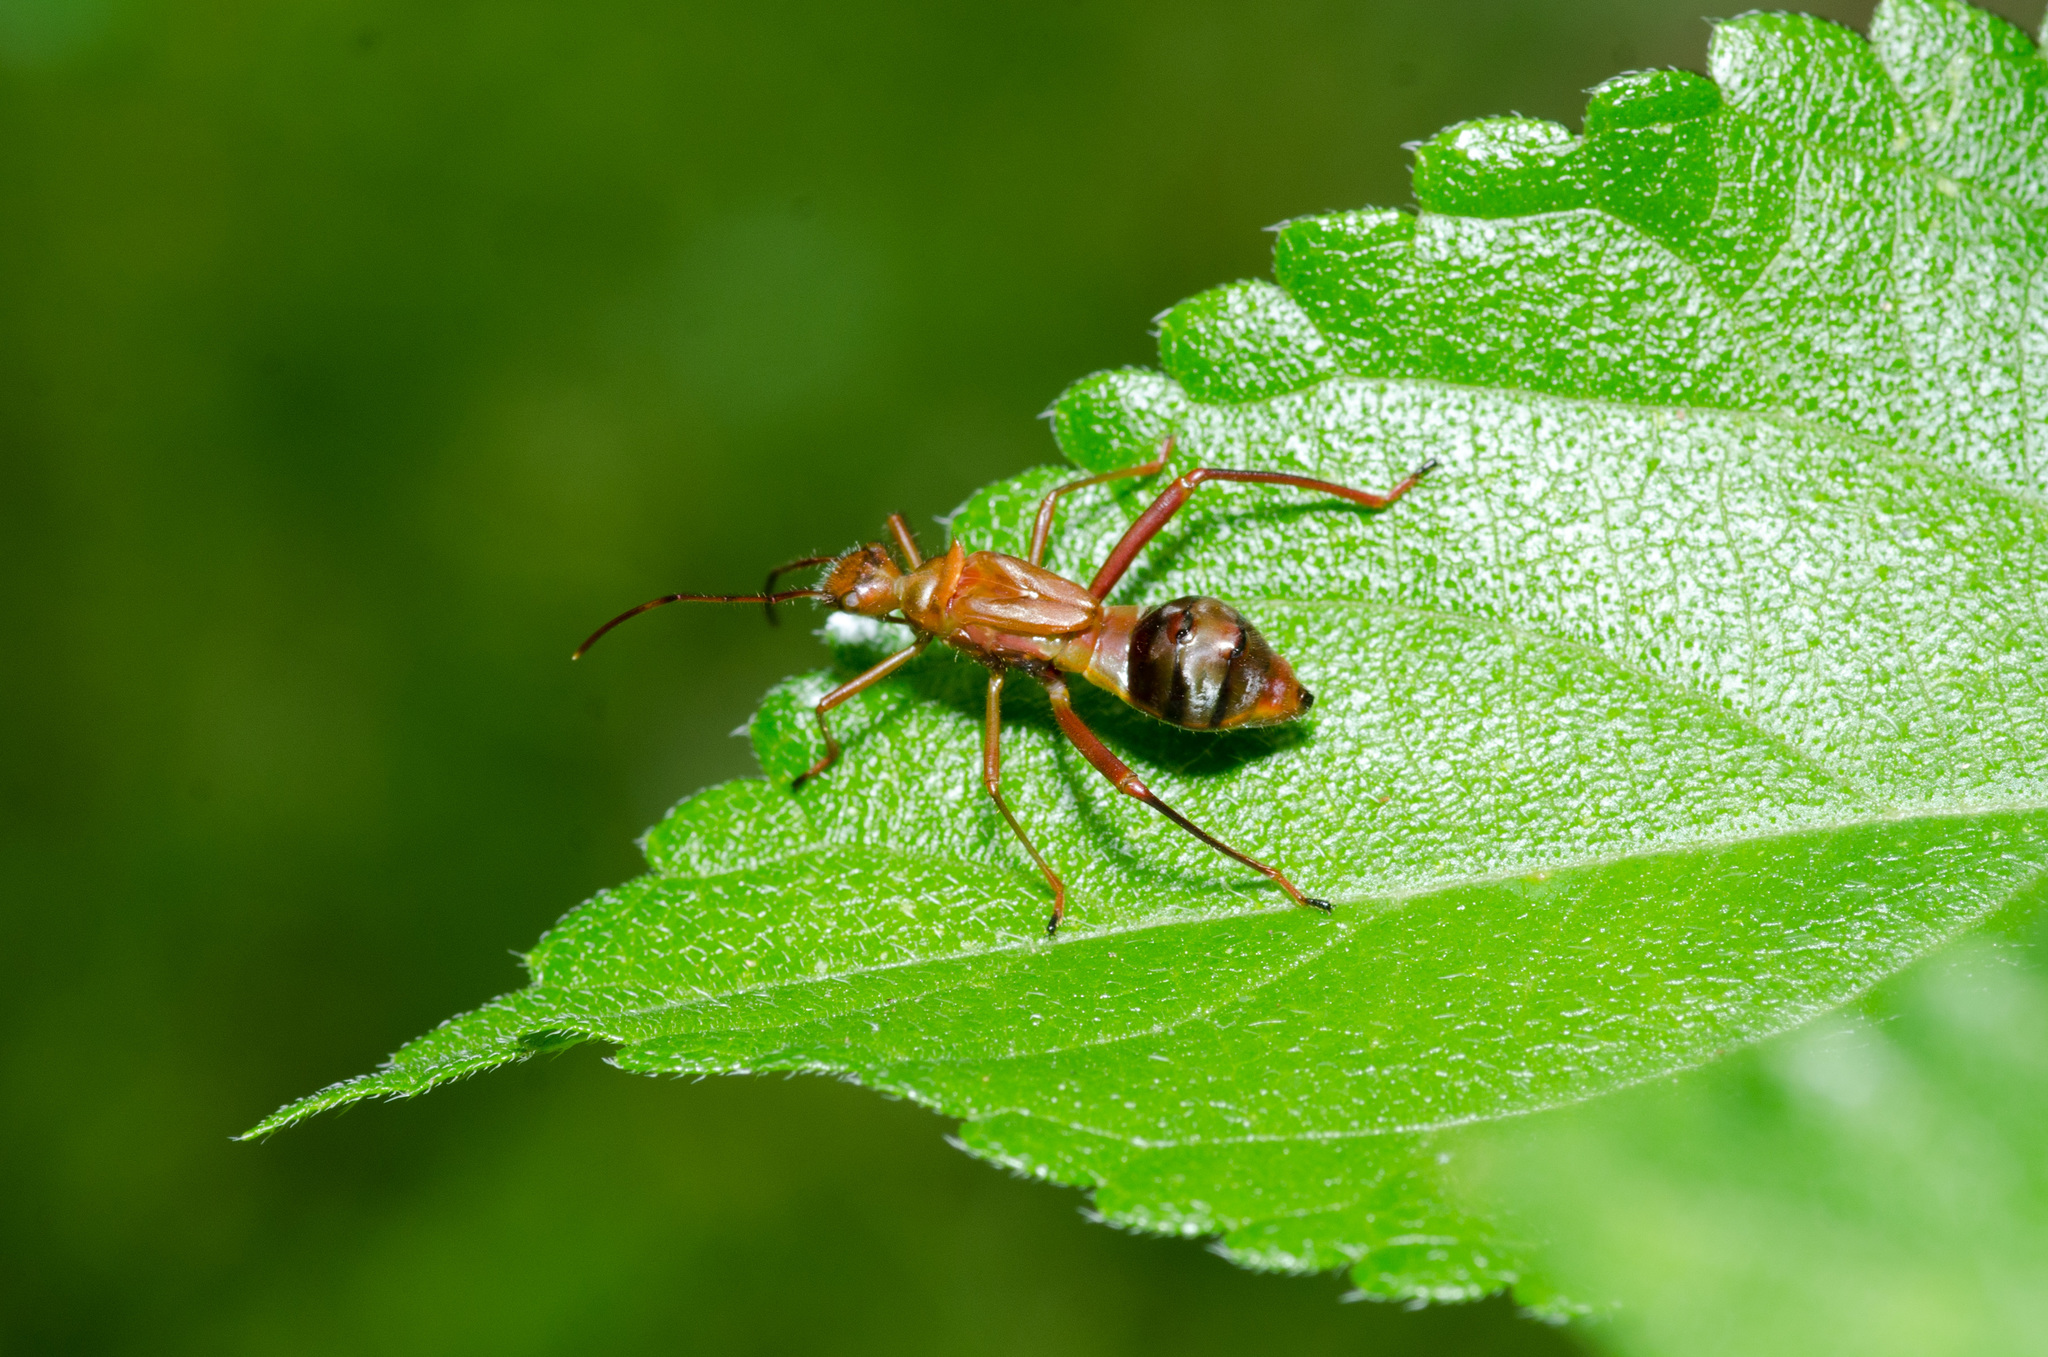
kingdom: Animalia
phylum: Arthropoda
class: Insecta
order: Hemiptera
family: Alydidae
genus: Hyalymenus
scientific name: Hyalymenus tarsatus
